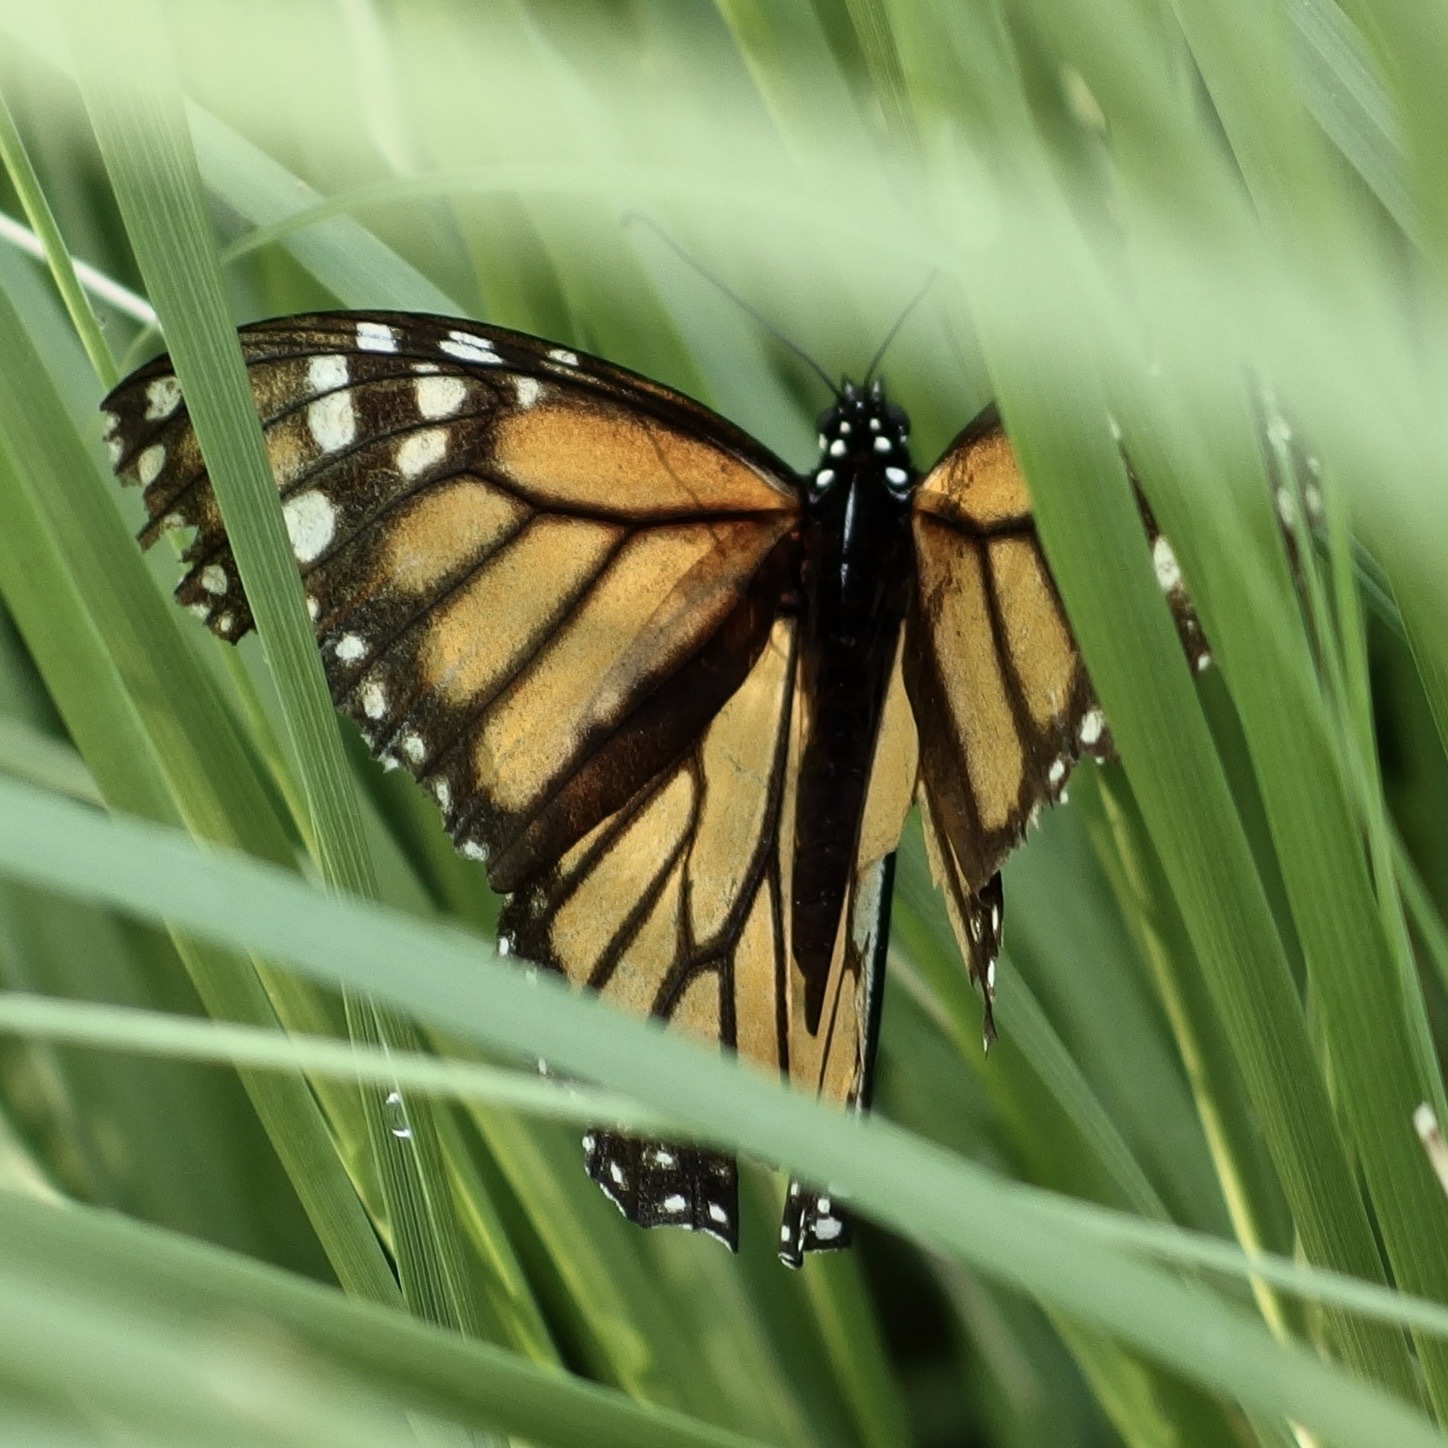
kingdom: Animalia
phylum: Arthropoda
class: Insecta
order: Lepidoptera
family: Nymphalidae
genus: Danaus
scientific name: Danaus plexippus
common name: Monarch
